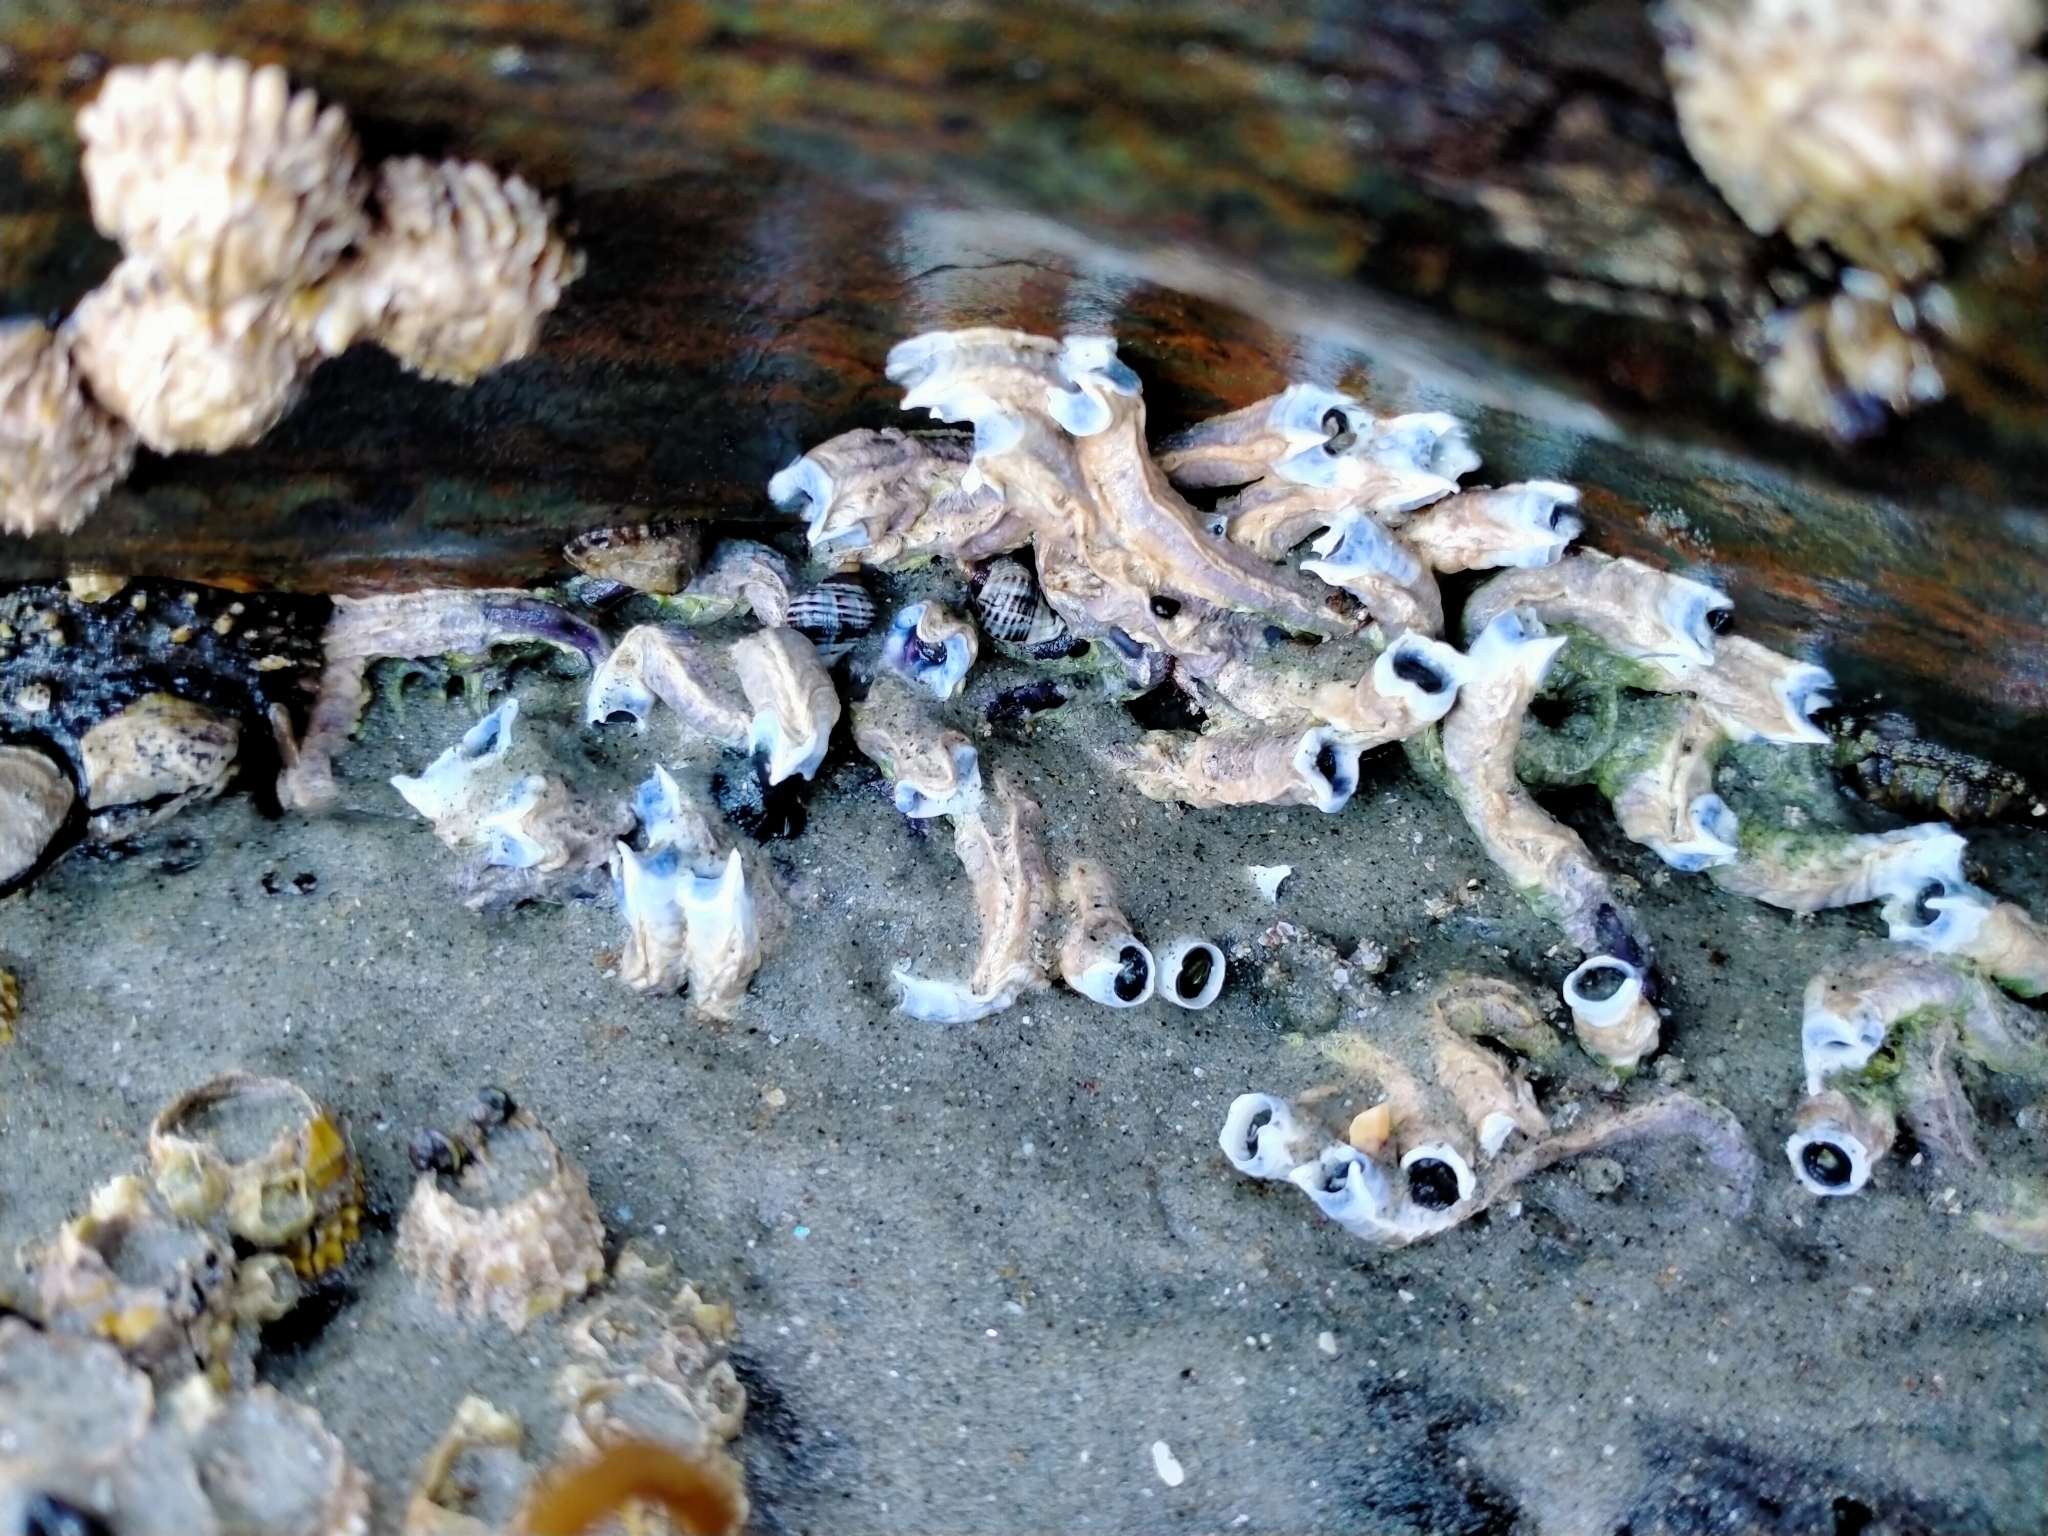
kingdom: Animalia
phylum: Annelida
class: Polychaeta
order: Sabellida
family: Serpulidae
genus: Spirobranchus
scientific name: Spirobranchus cariniferus
